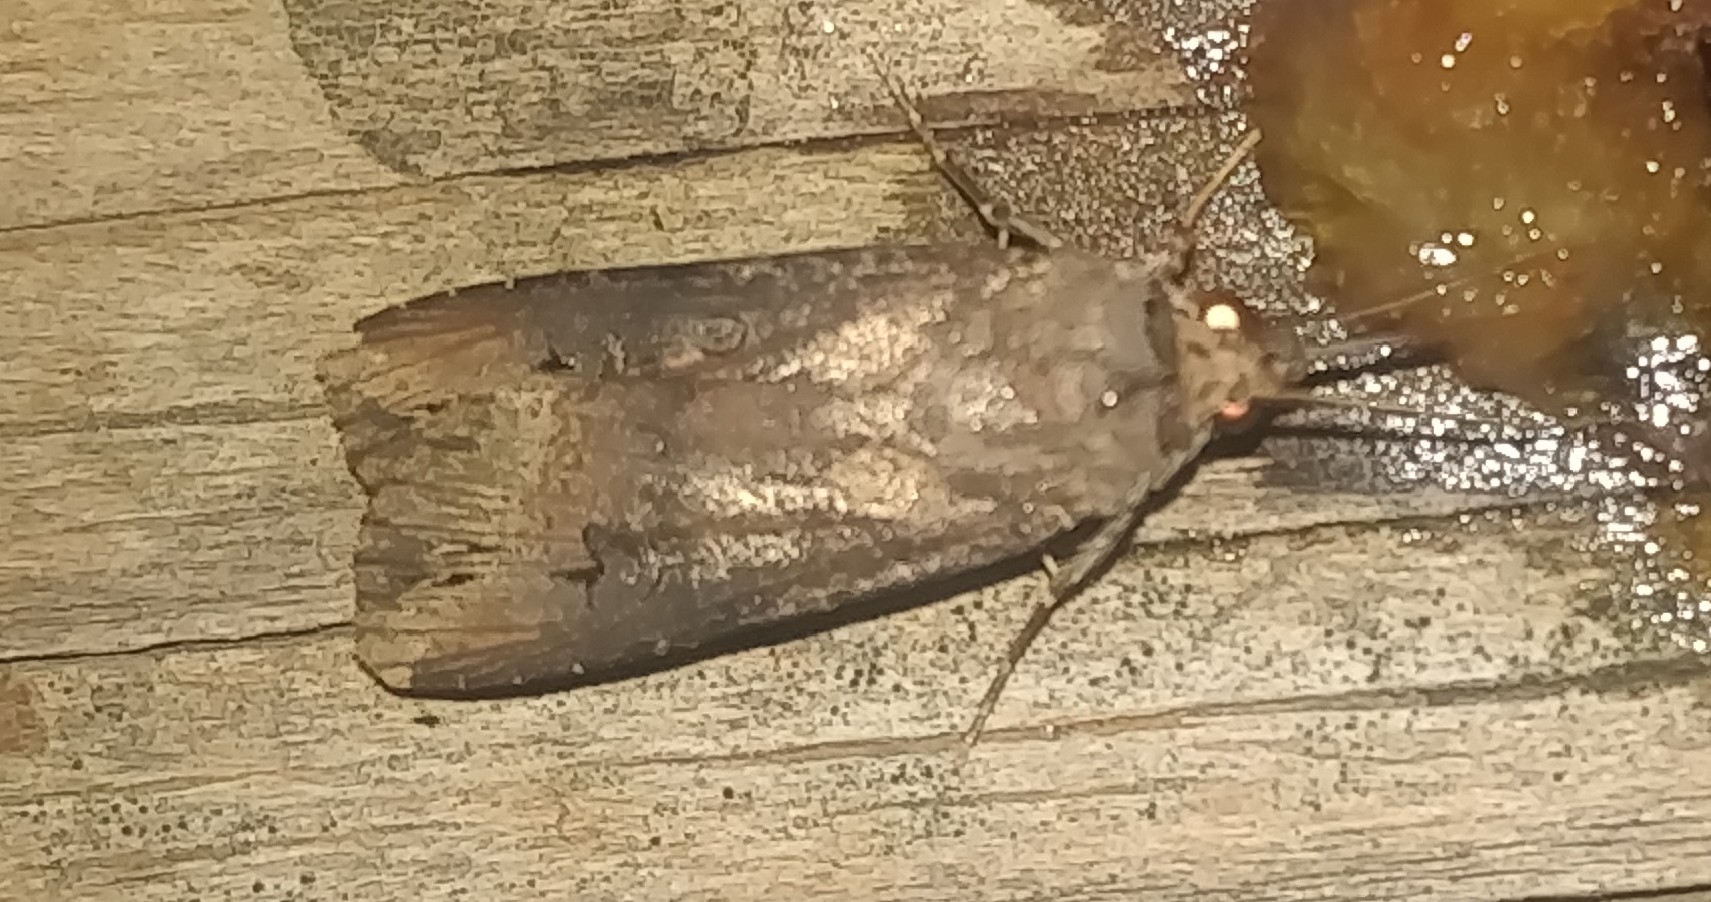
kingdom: Animalia
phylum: Arthropoda
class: Insecta
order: Lepidoptera
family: Noctuidae
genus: Agrotis
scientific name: Agrotis ipsilon
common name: Dark sword-grass
